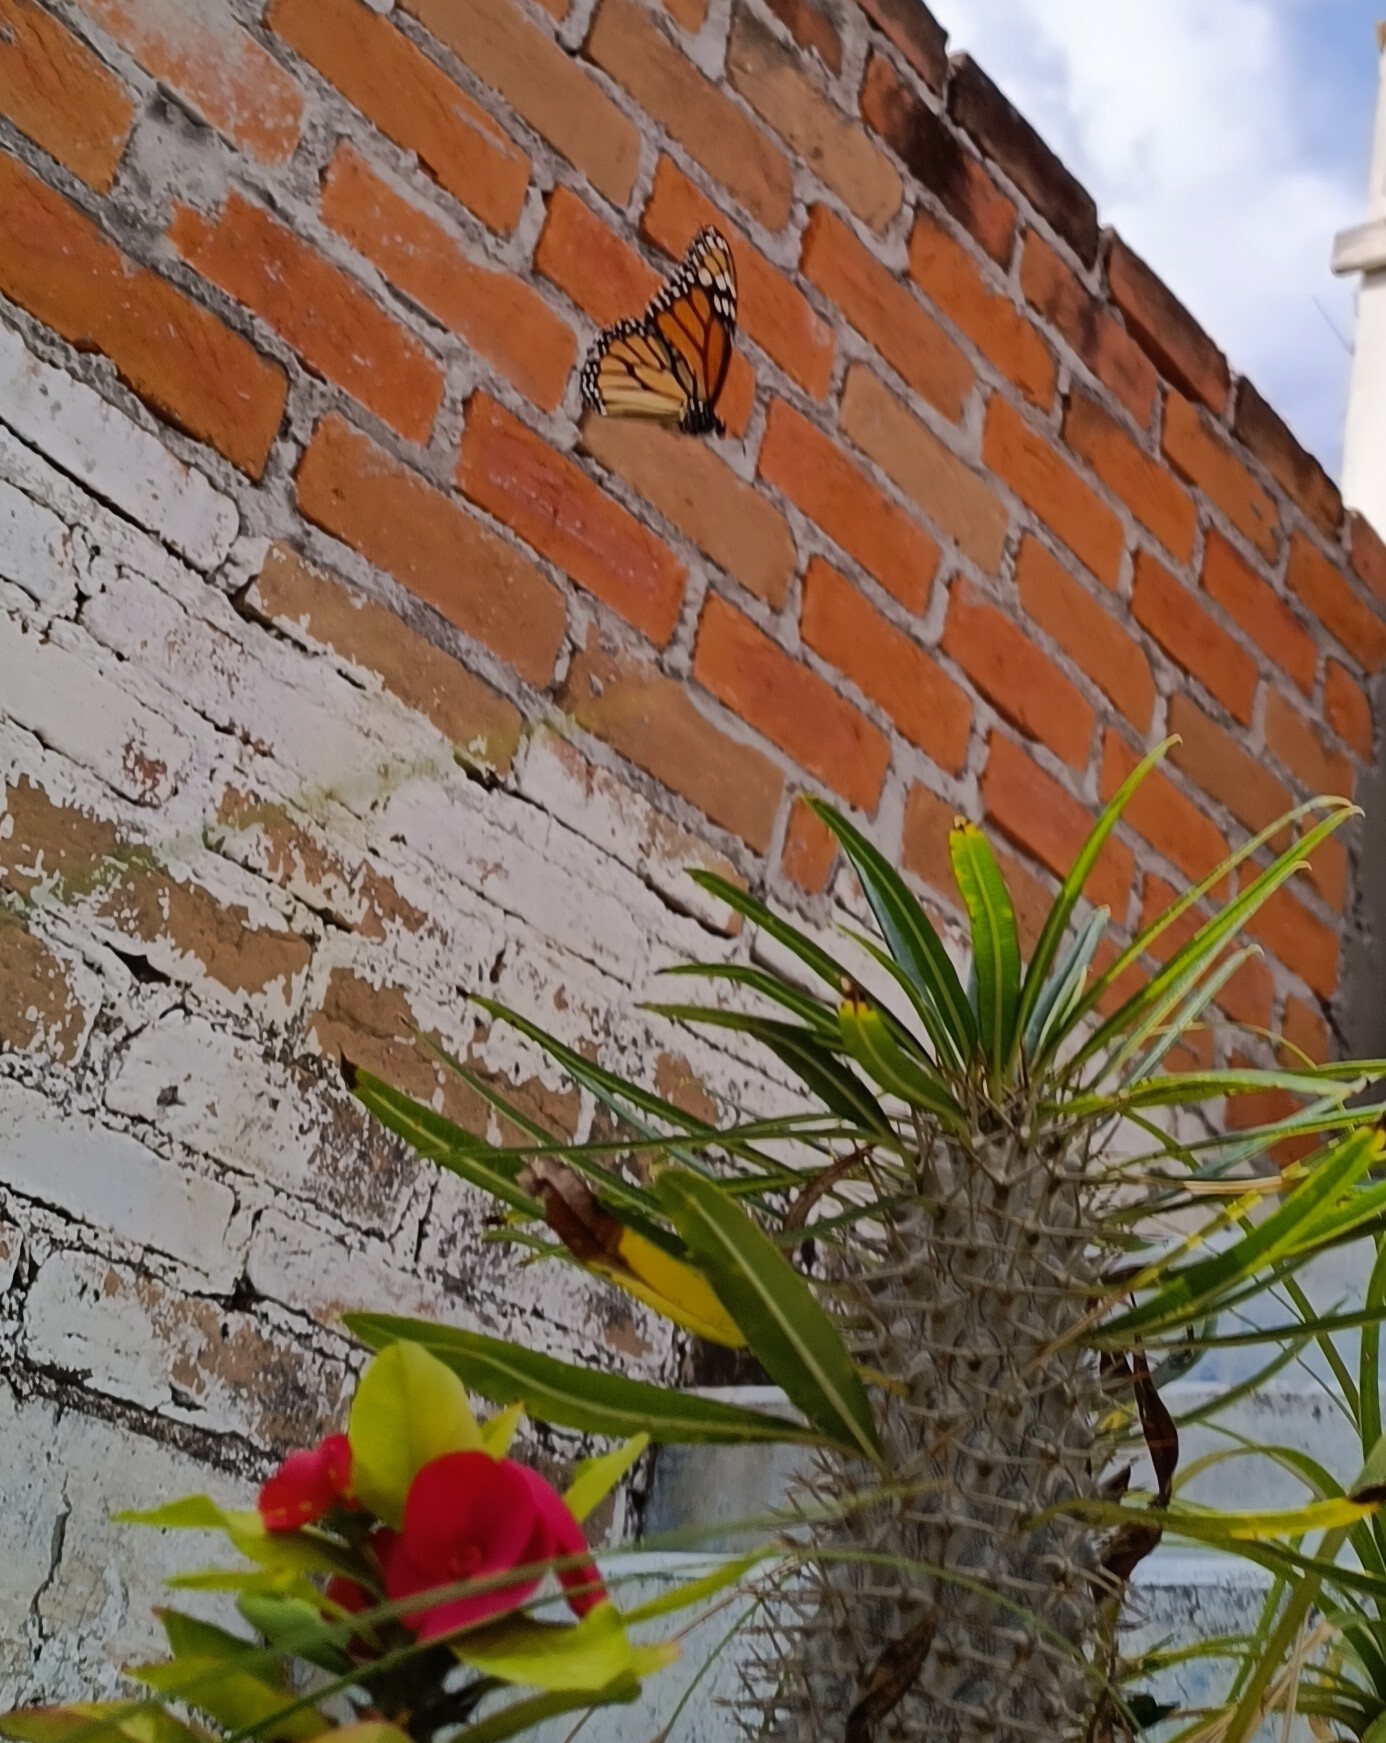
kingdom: Animalia
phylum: Arthropoda
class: Insecta
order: Lepidoptera
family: Nymphalidae
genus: Danaus
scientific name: Danaus plexippus
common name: Monarch
